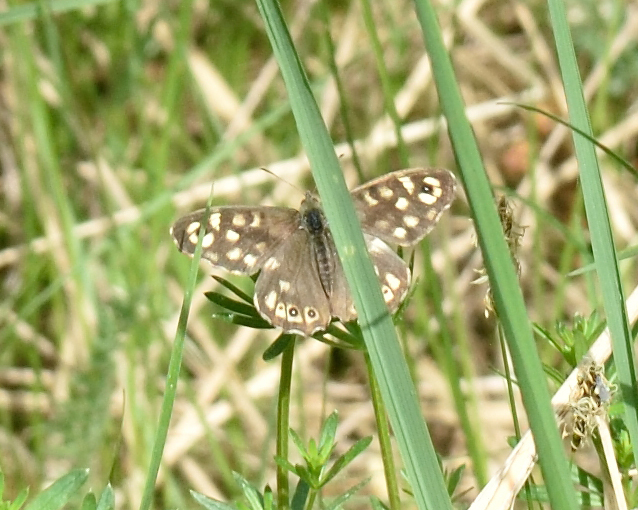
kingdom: Animalia
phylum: Arthropoda
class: Insecta
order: Lepidoptera
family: Nymphalidae
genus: Pararge
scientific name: Pararge aegeria
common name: Speckled wood
